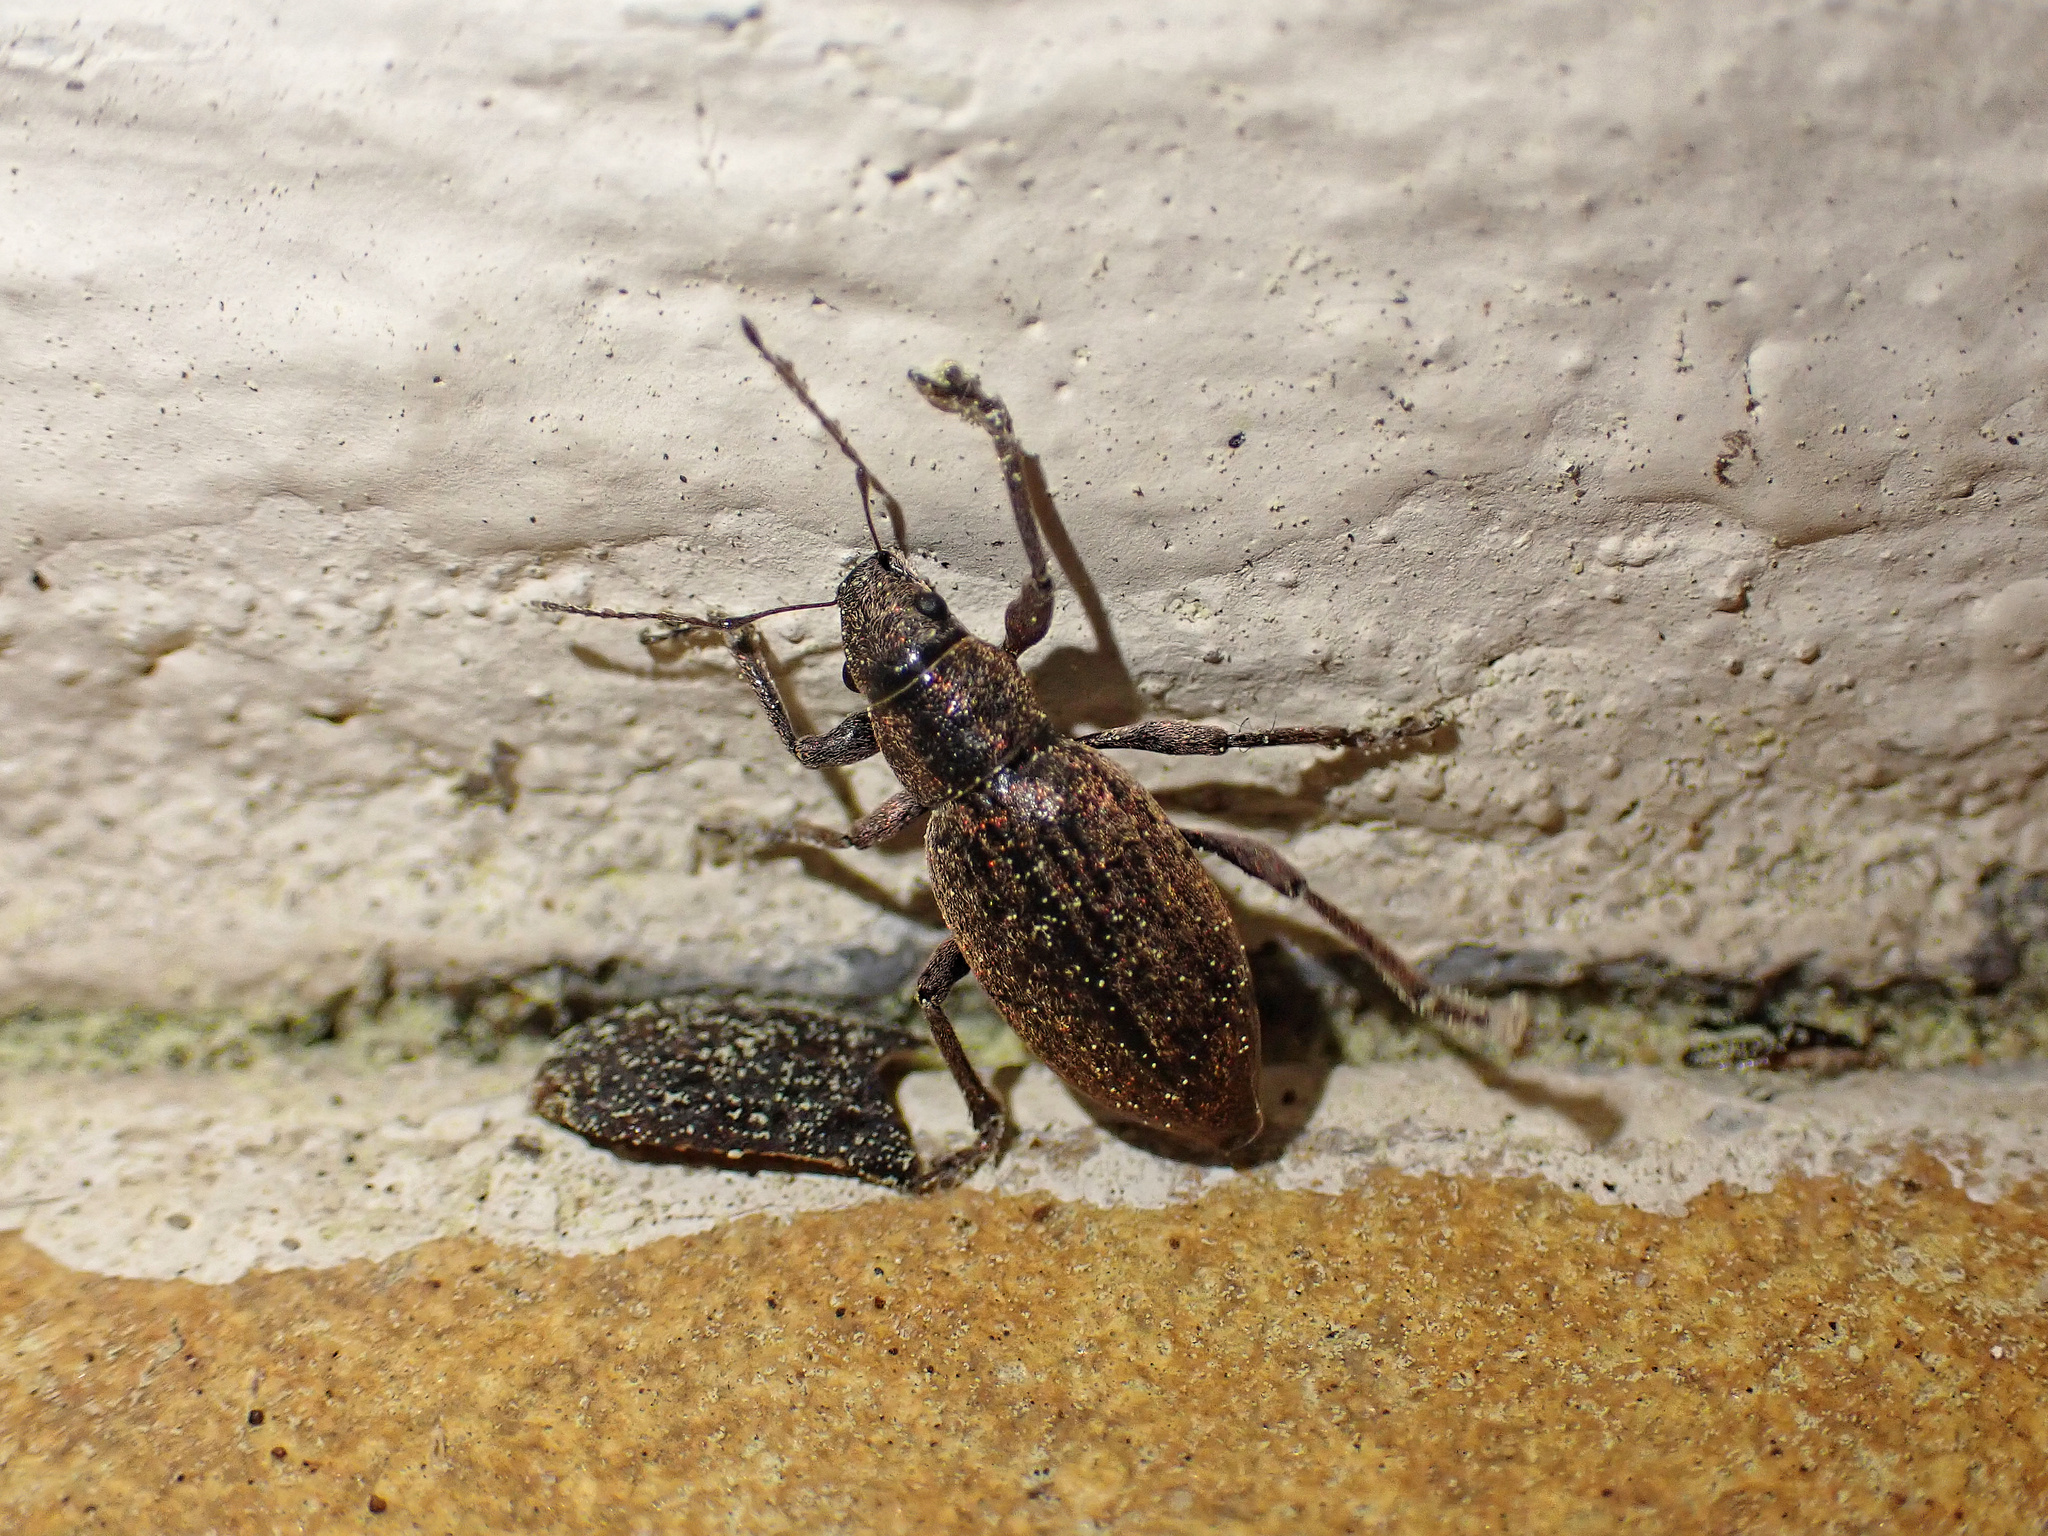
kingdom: Animalia
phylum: Arthropoda
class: Insecta
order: Coleoptera
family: Curculionidae
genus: Brachyderes
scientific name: Brachyderes incanus
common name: Weevil
